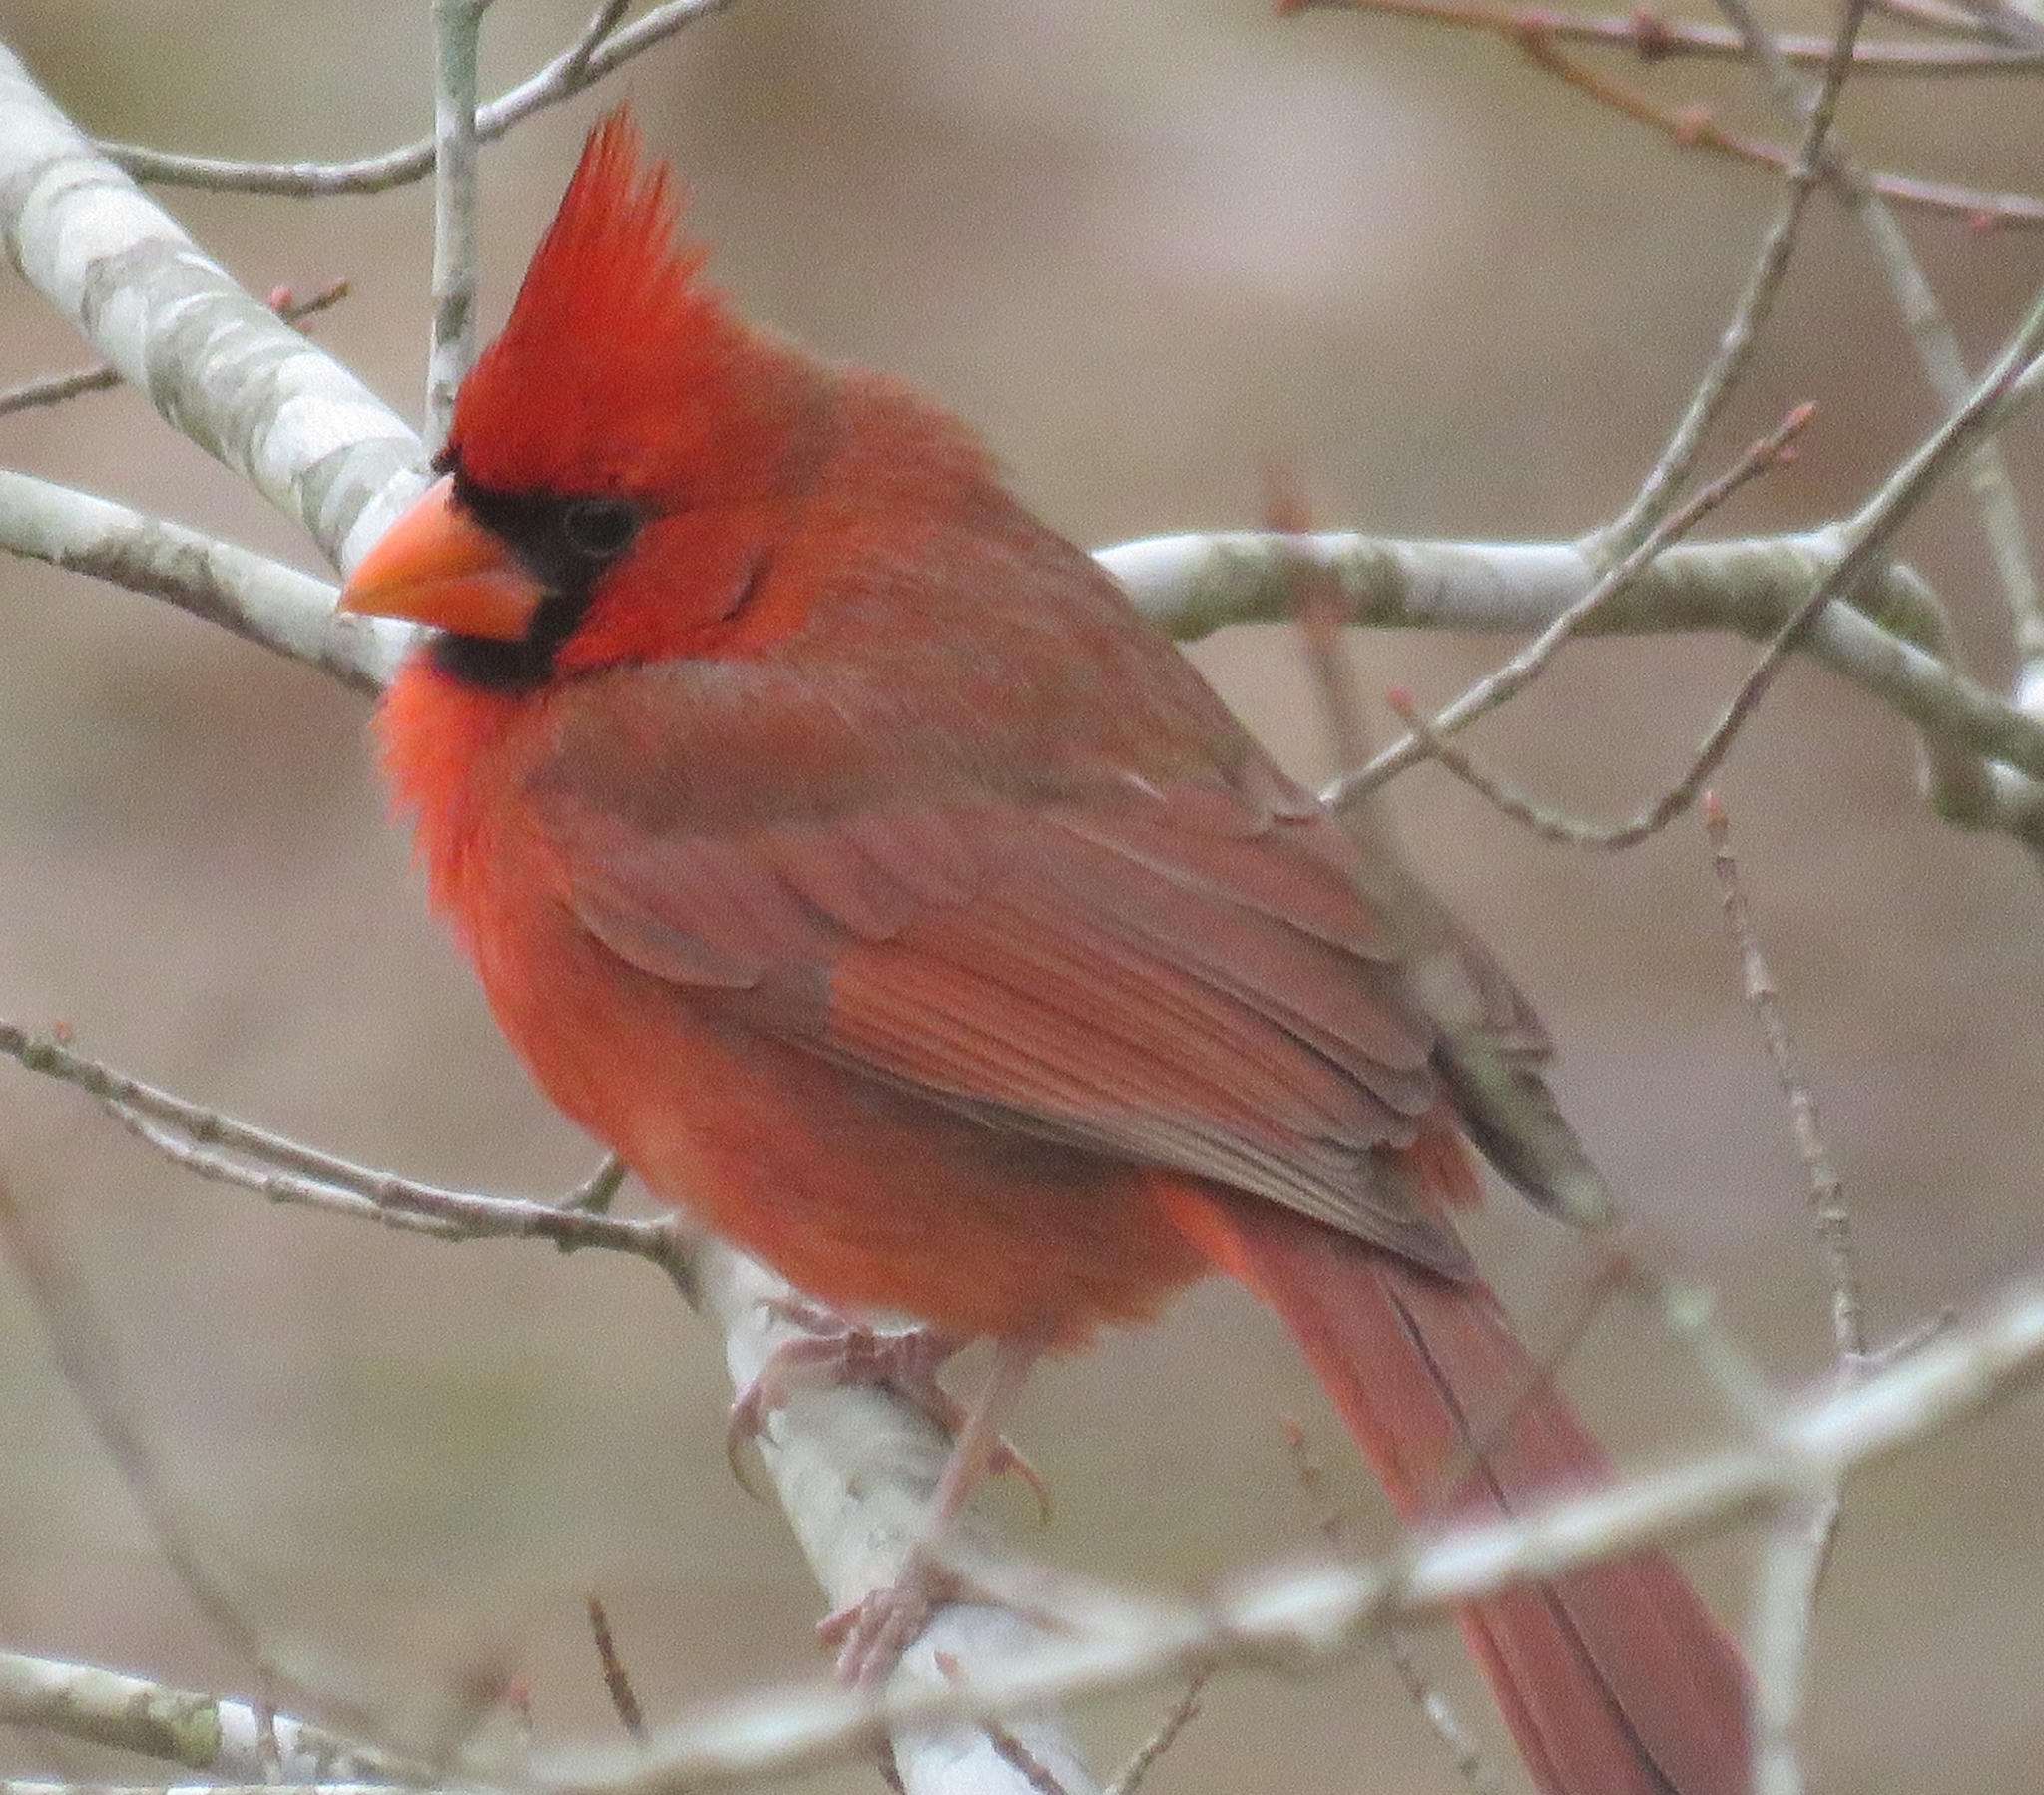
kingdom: Animalia
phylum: Chordata
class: Aves
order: Passeriformes
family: Cardinalidae
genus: Cardinalis
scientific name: Cardinalis cardinalis
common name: Northern cardinal
